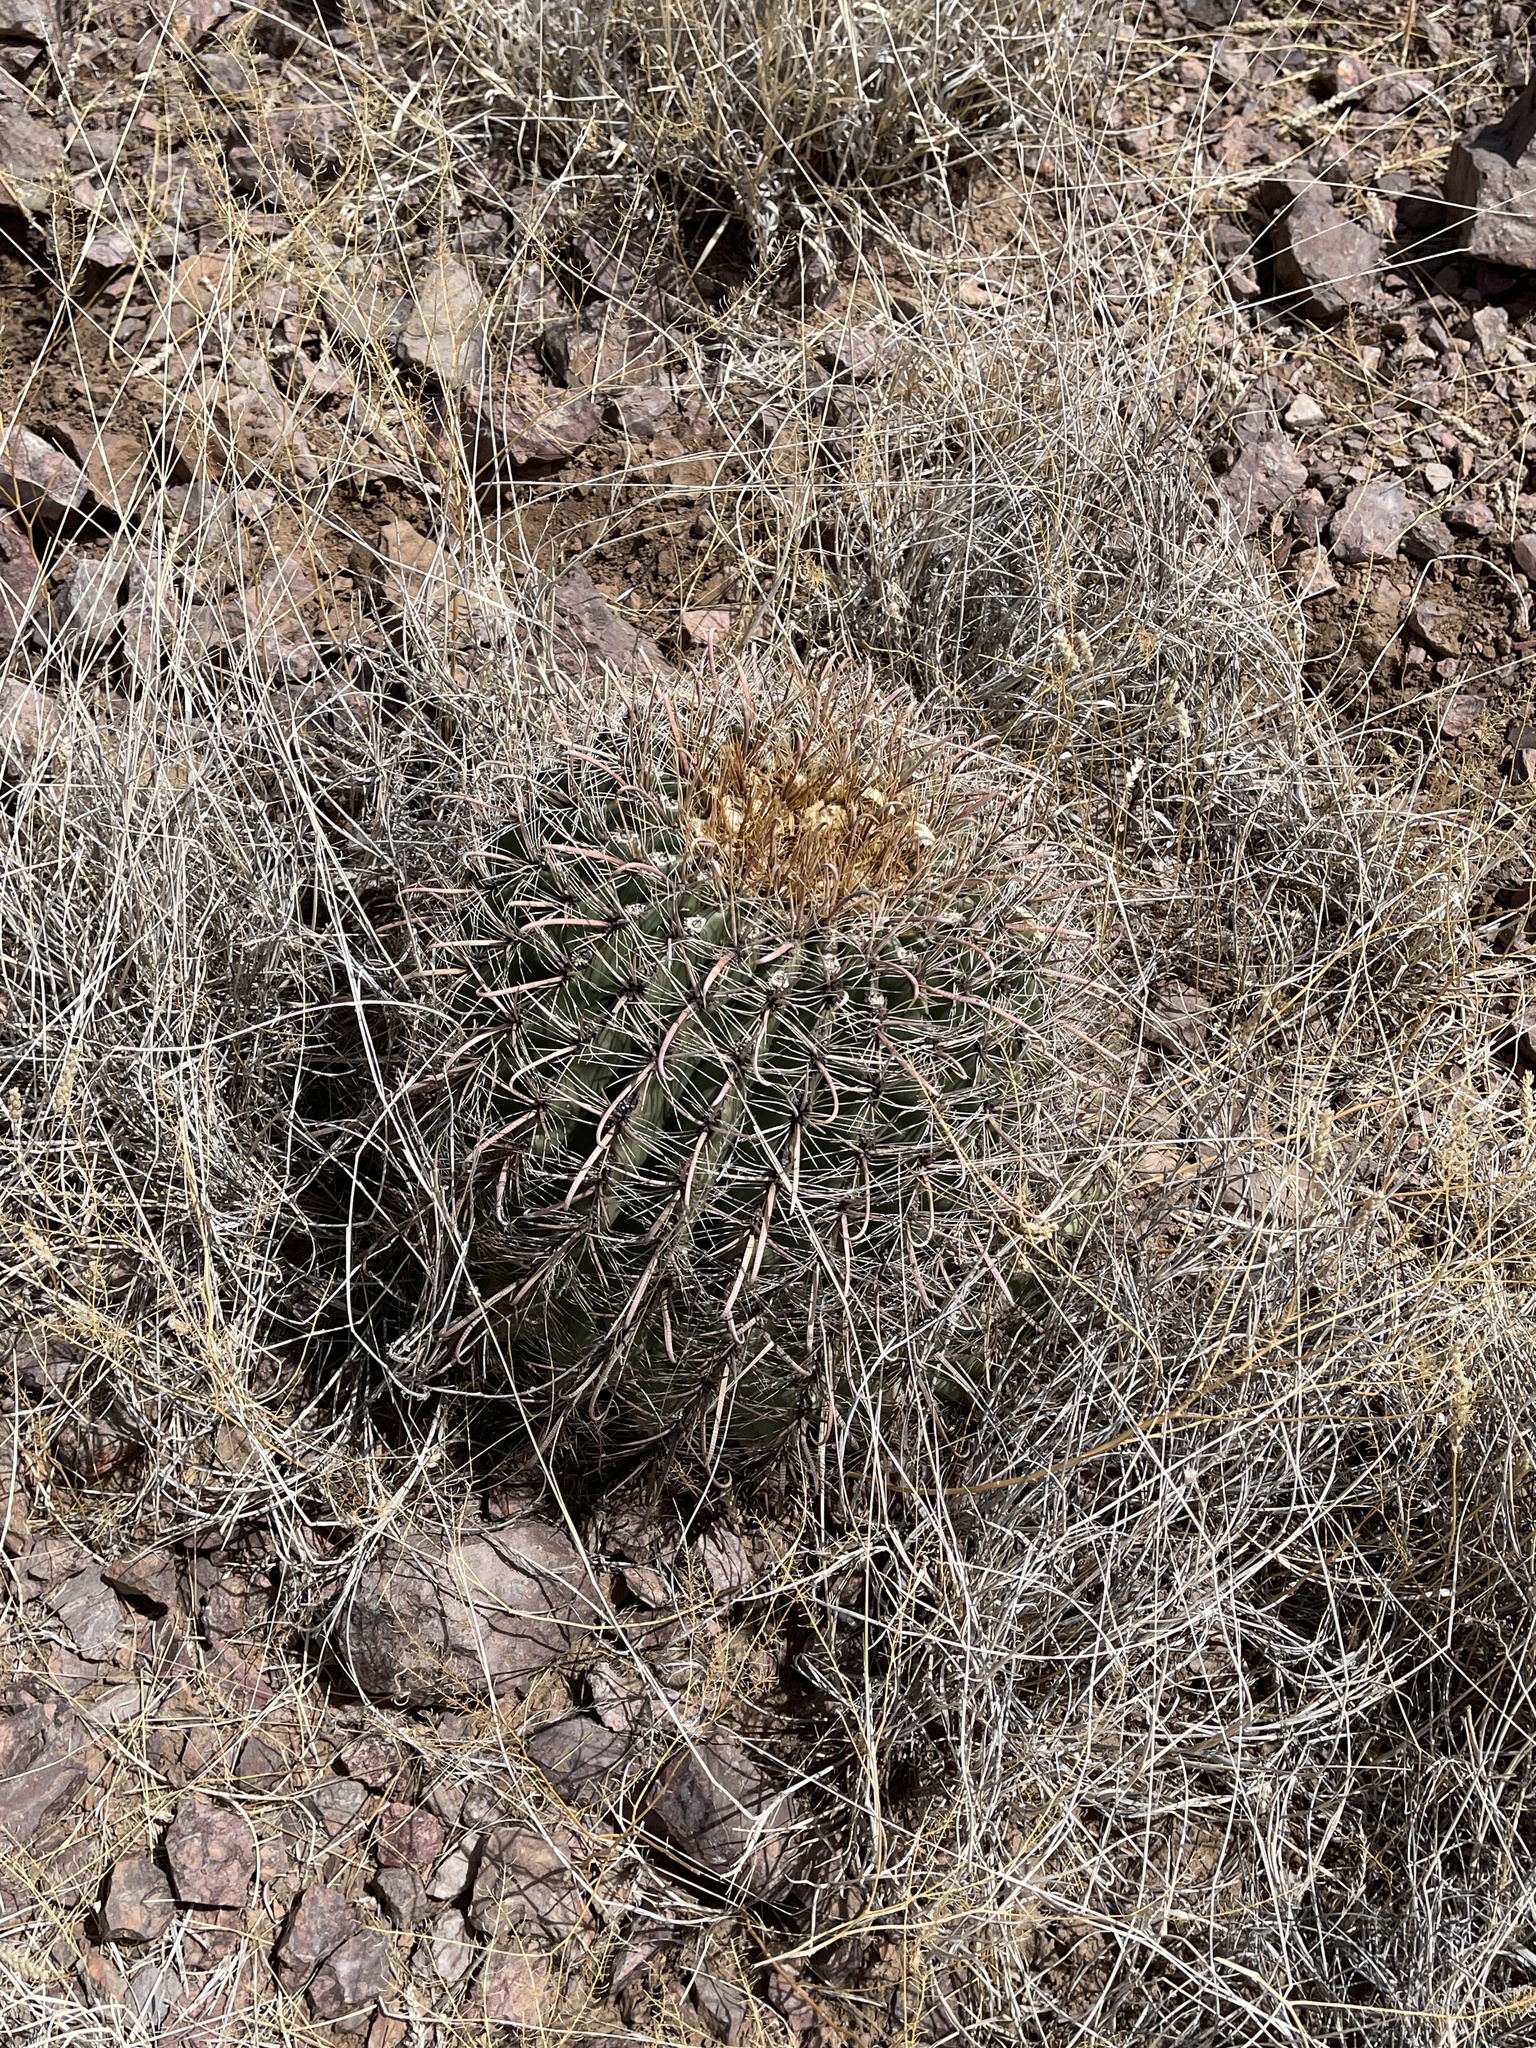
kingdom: Plantae
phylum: Tracheophyta
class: Magnoliopsida
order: Caryophyllales
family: Cactaceae
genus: Ferocactus
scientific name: Ferocactus wislizeni
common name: Candy barrel cactus
